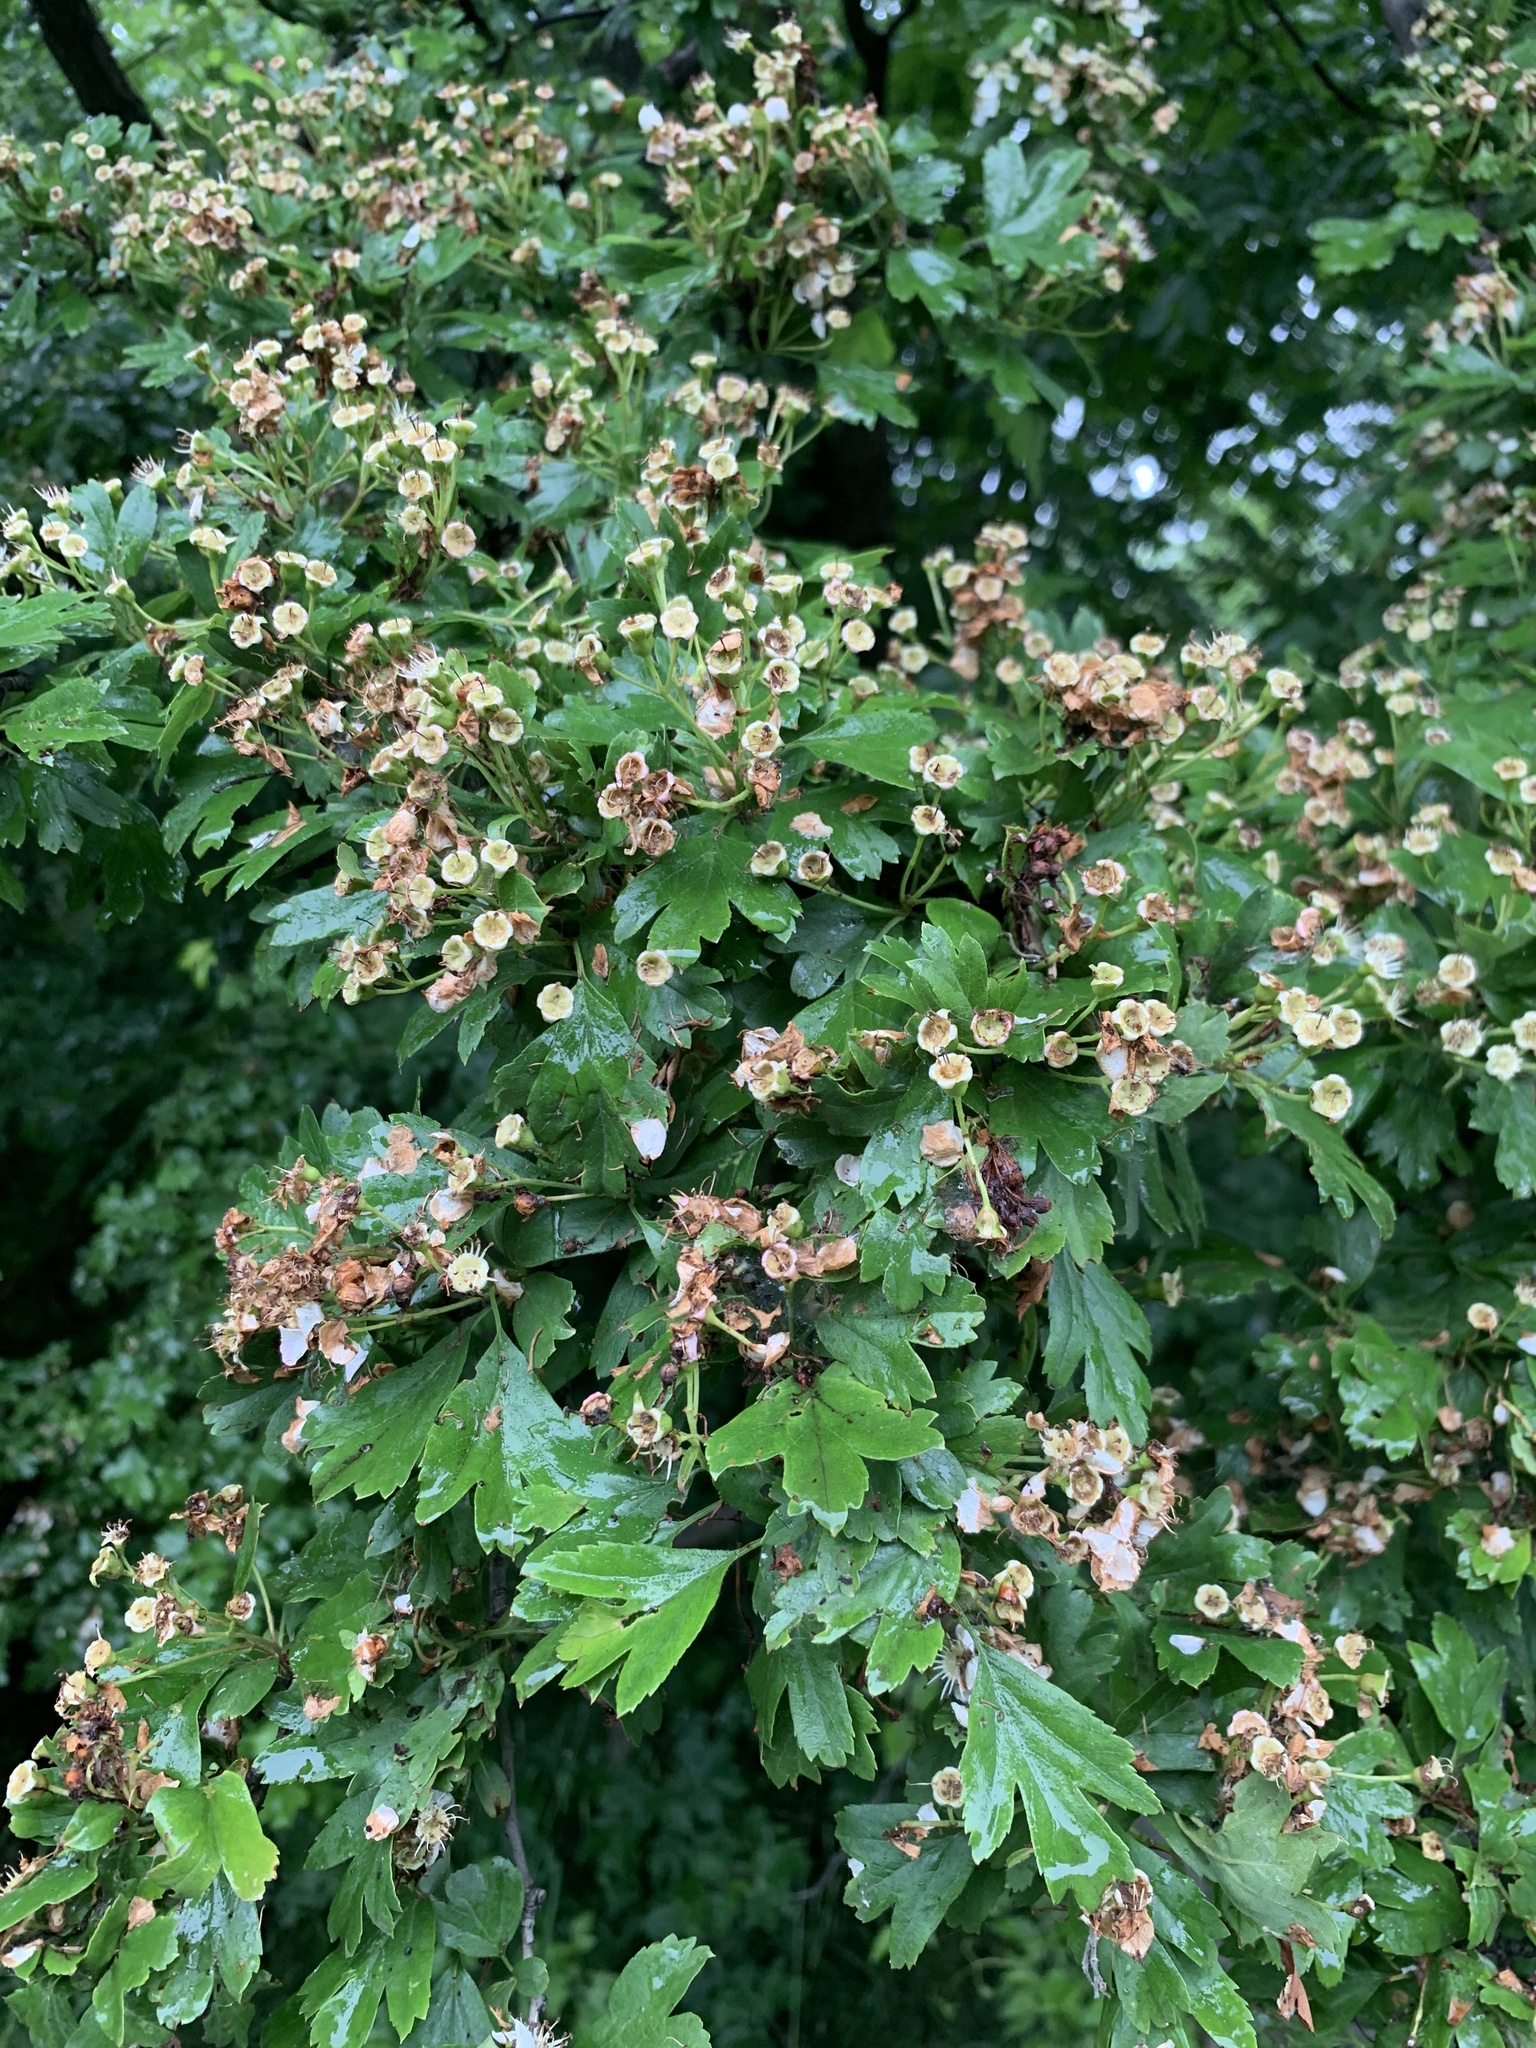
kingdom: Plantae
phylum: Tracheophyta
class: Magnoliopsida
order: Rosales
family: Rosaceae
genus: Crataegus
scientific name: Crataegus monogyna
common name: Hawthorn
